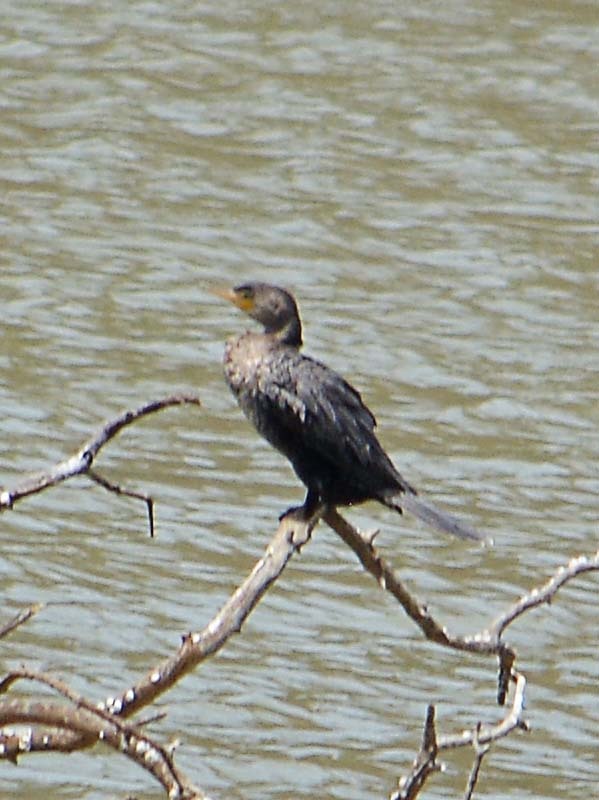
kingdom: Animalia
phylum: Chordata
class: Aves
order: Suliformes
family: Phalacrocoracidae
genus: Phalacrocorax
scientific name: Phalacrocorax brasilianus
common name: Neotropic cormorant
